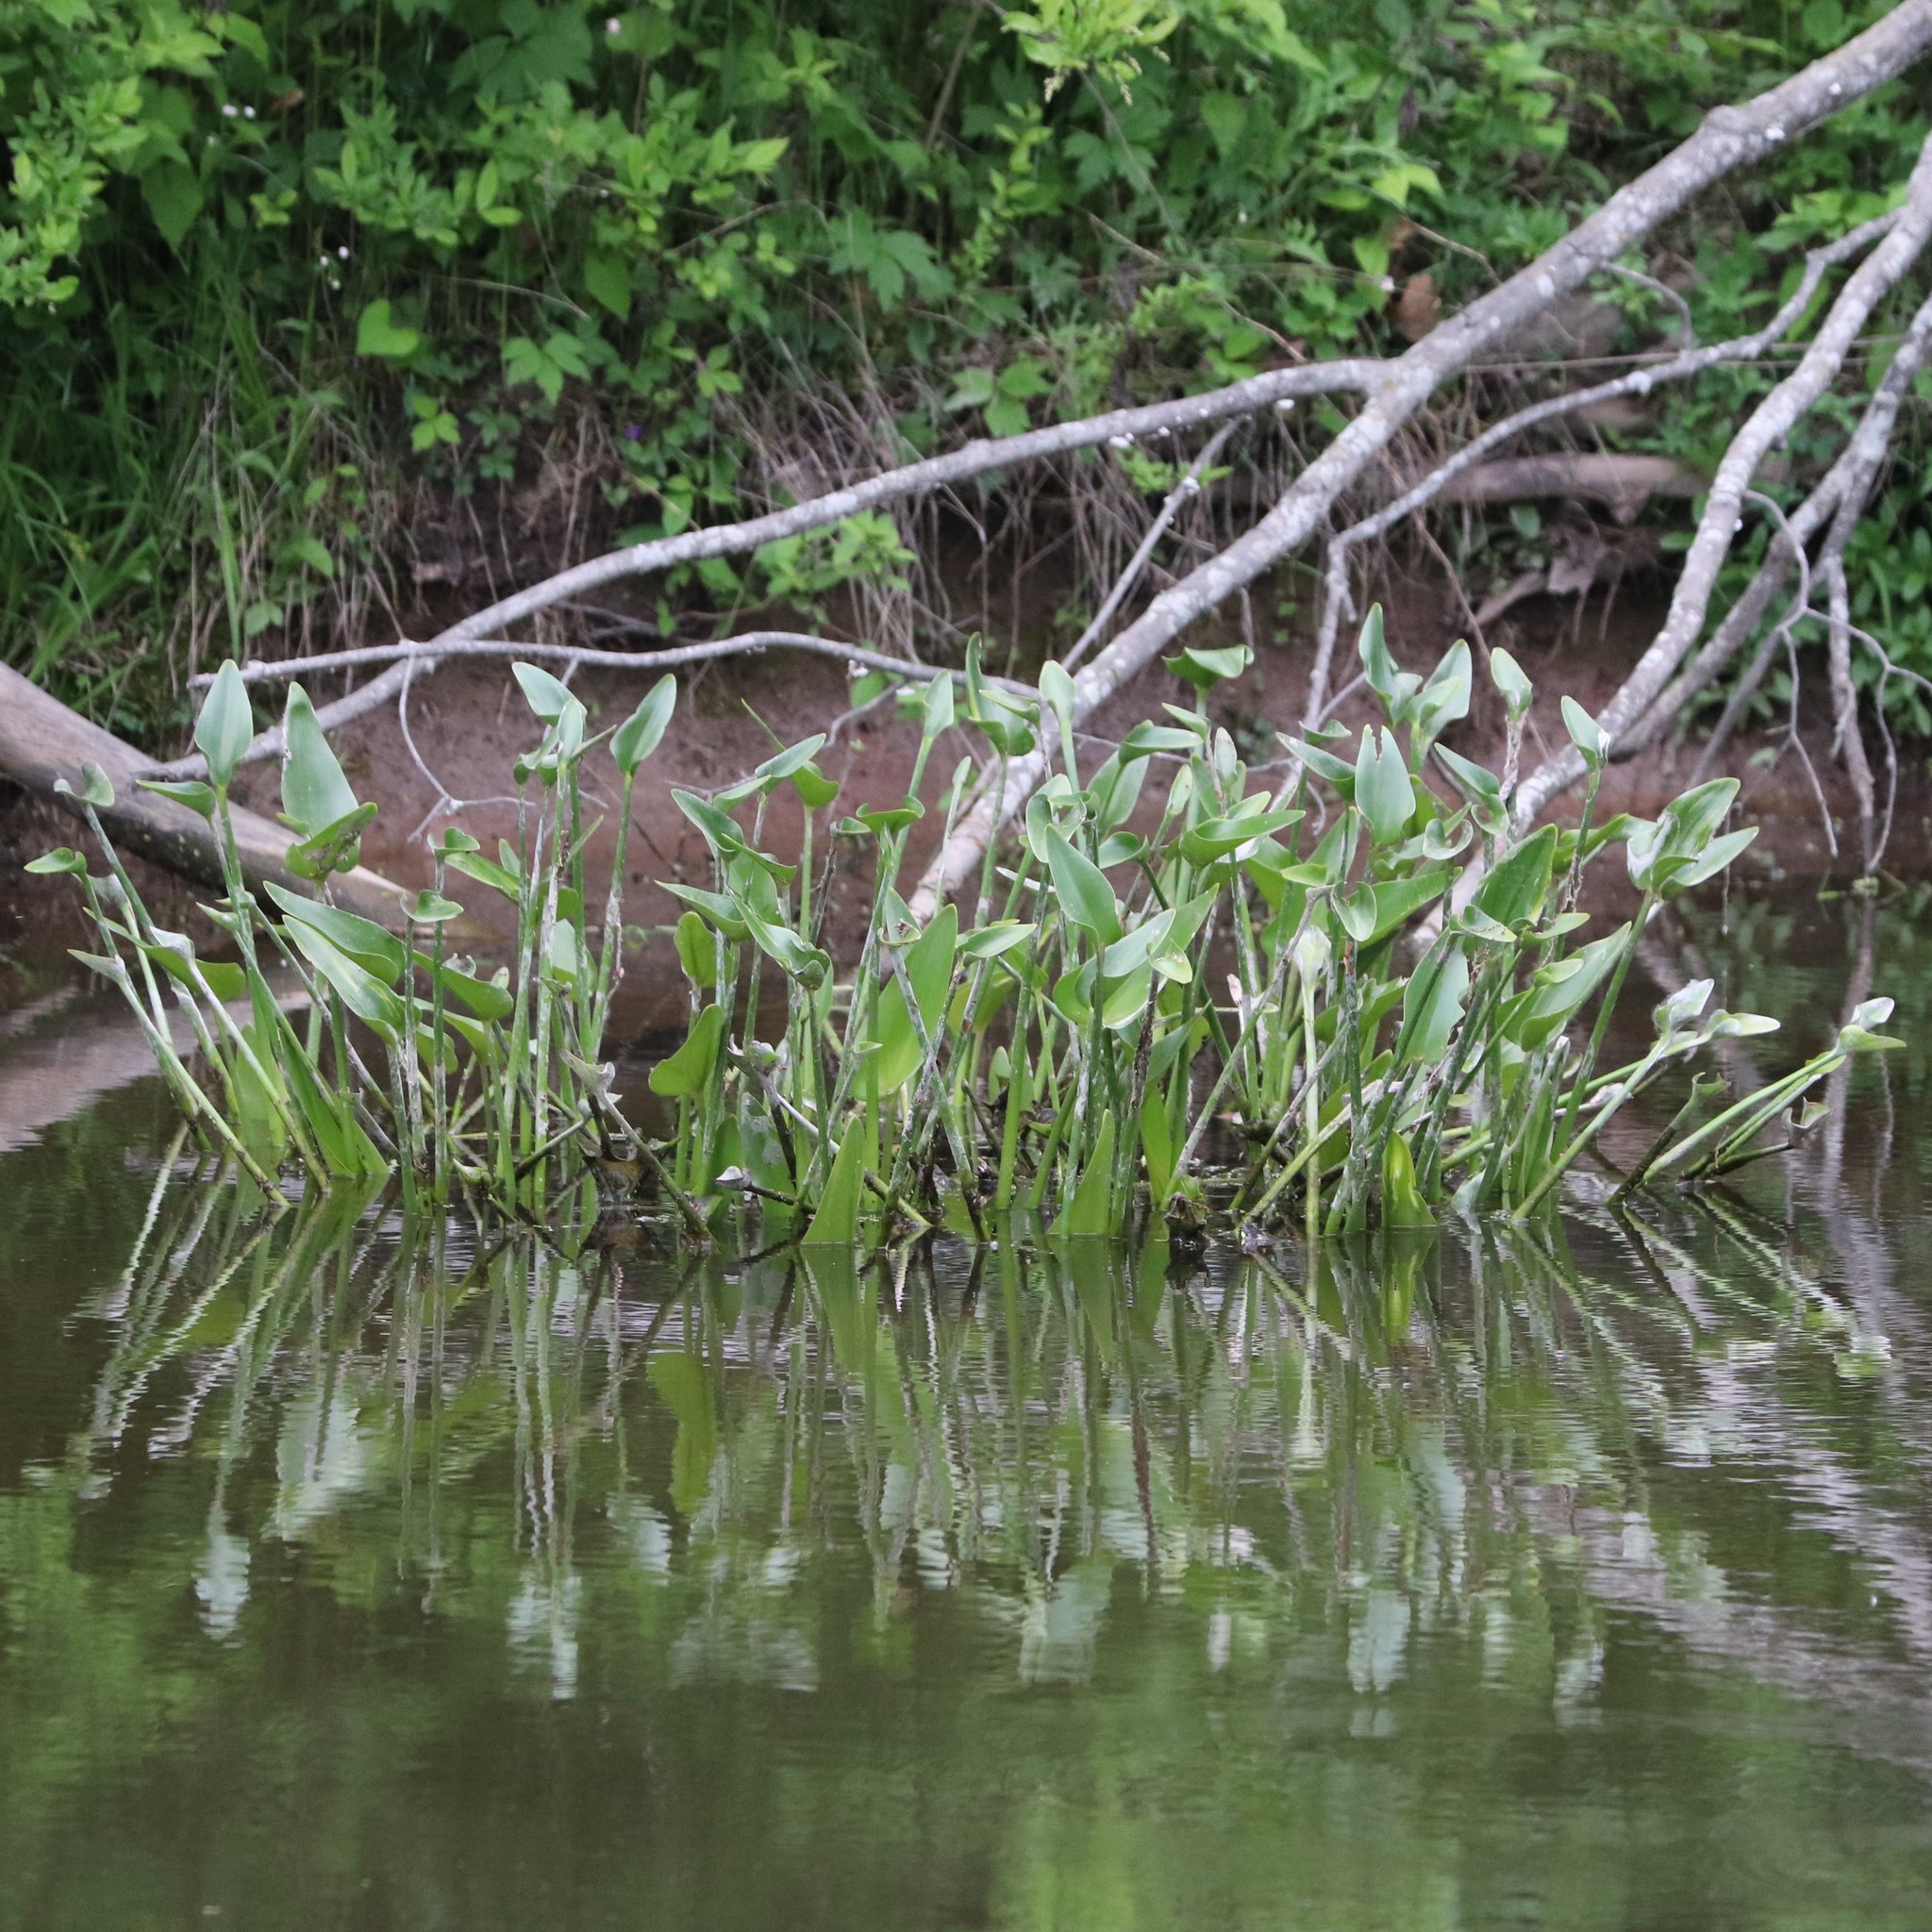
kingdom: Plantae
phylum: Tracheophyta
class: Liliopsida
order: Commelinales
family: Pontederiaceae
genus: Pontederia
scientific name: Pontederia cordata
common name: Pickerelweed
